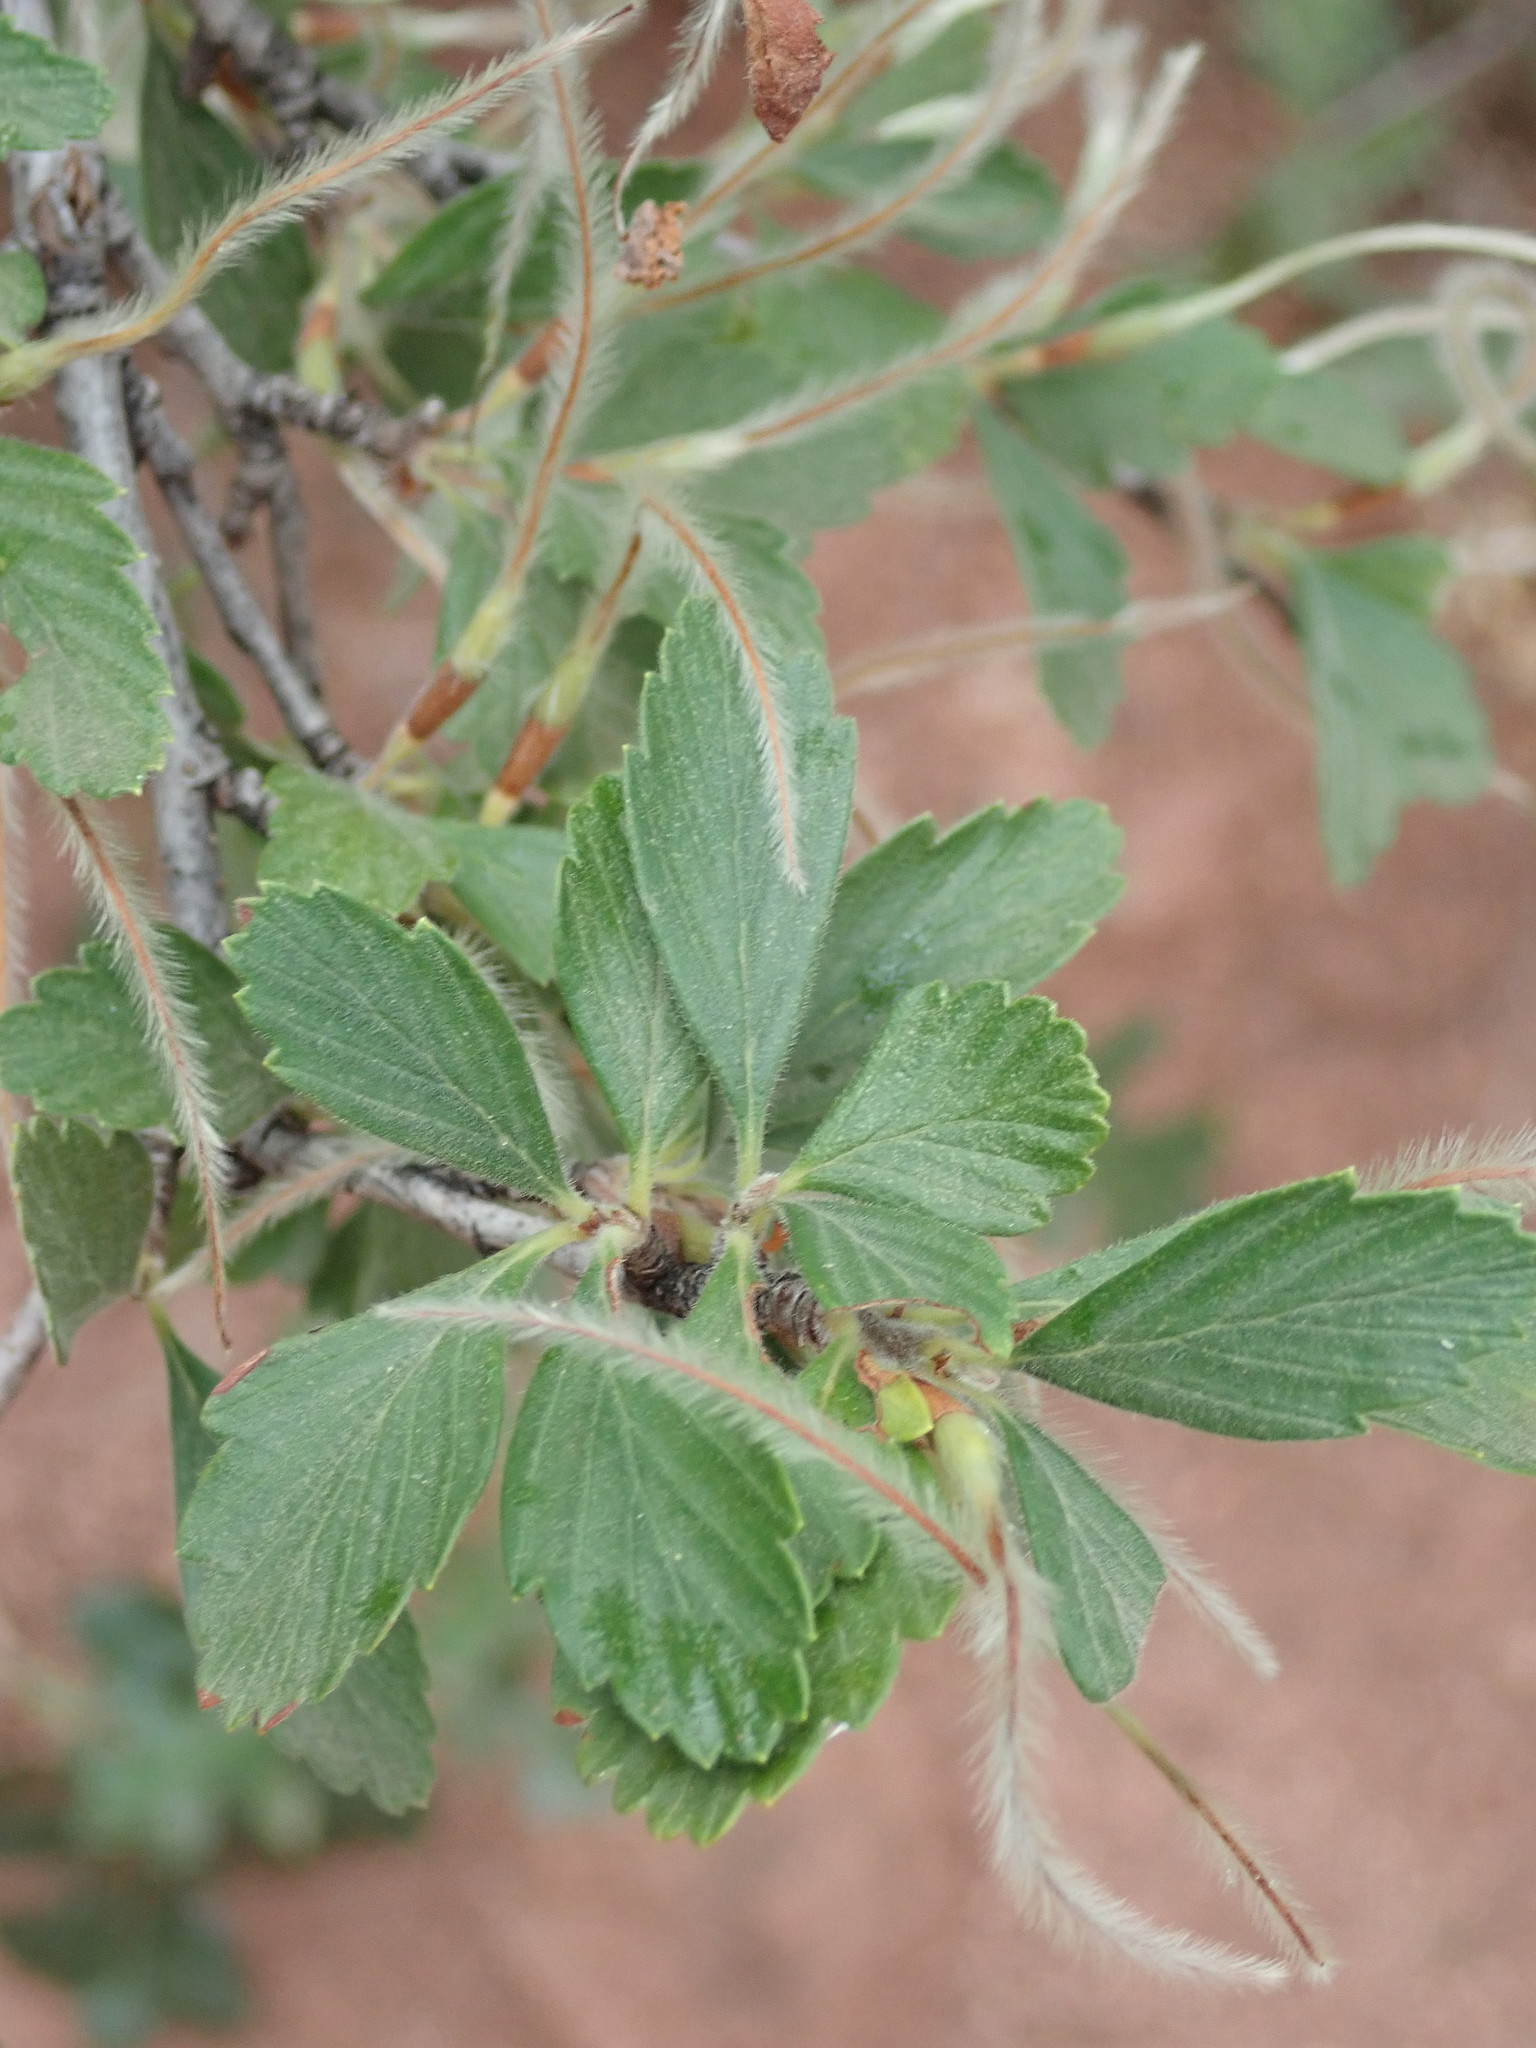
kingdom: Plantae
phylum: Tracheophyta
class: Magnoliopsida
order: Rosales
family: Rosaceae
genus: Cercocarpus
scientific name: Cercocarpus montanus
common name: Alder-leaf cercocarpus
